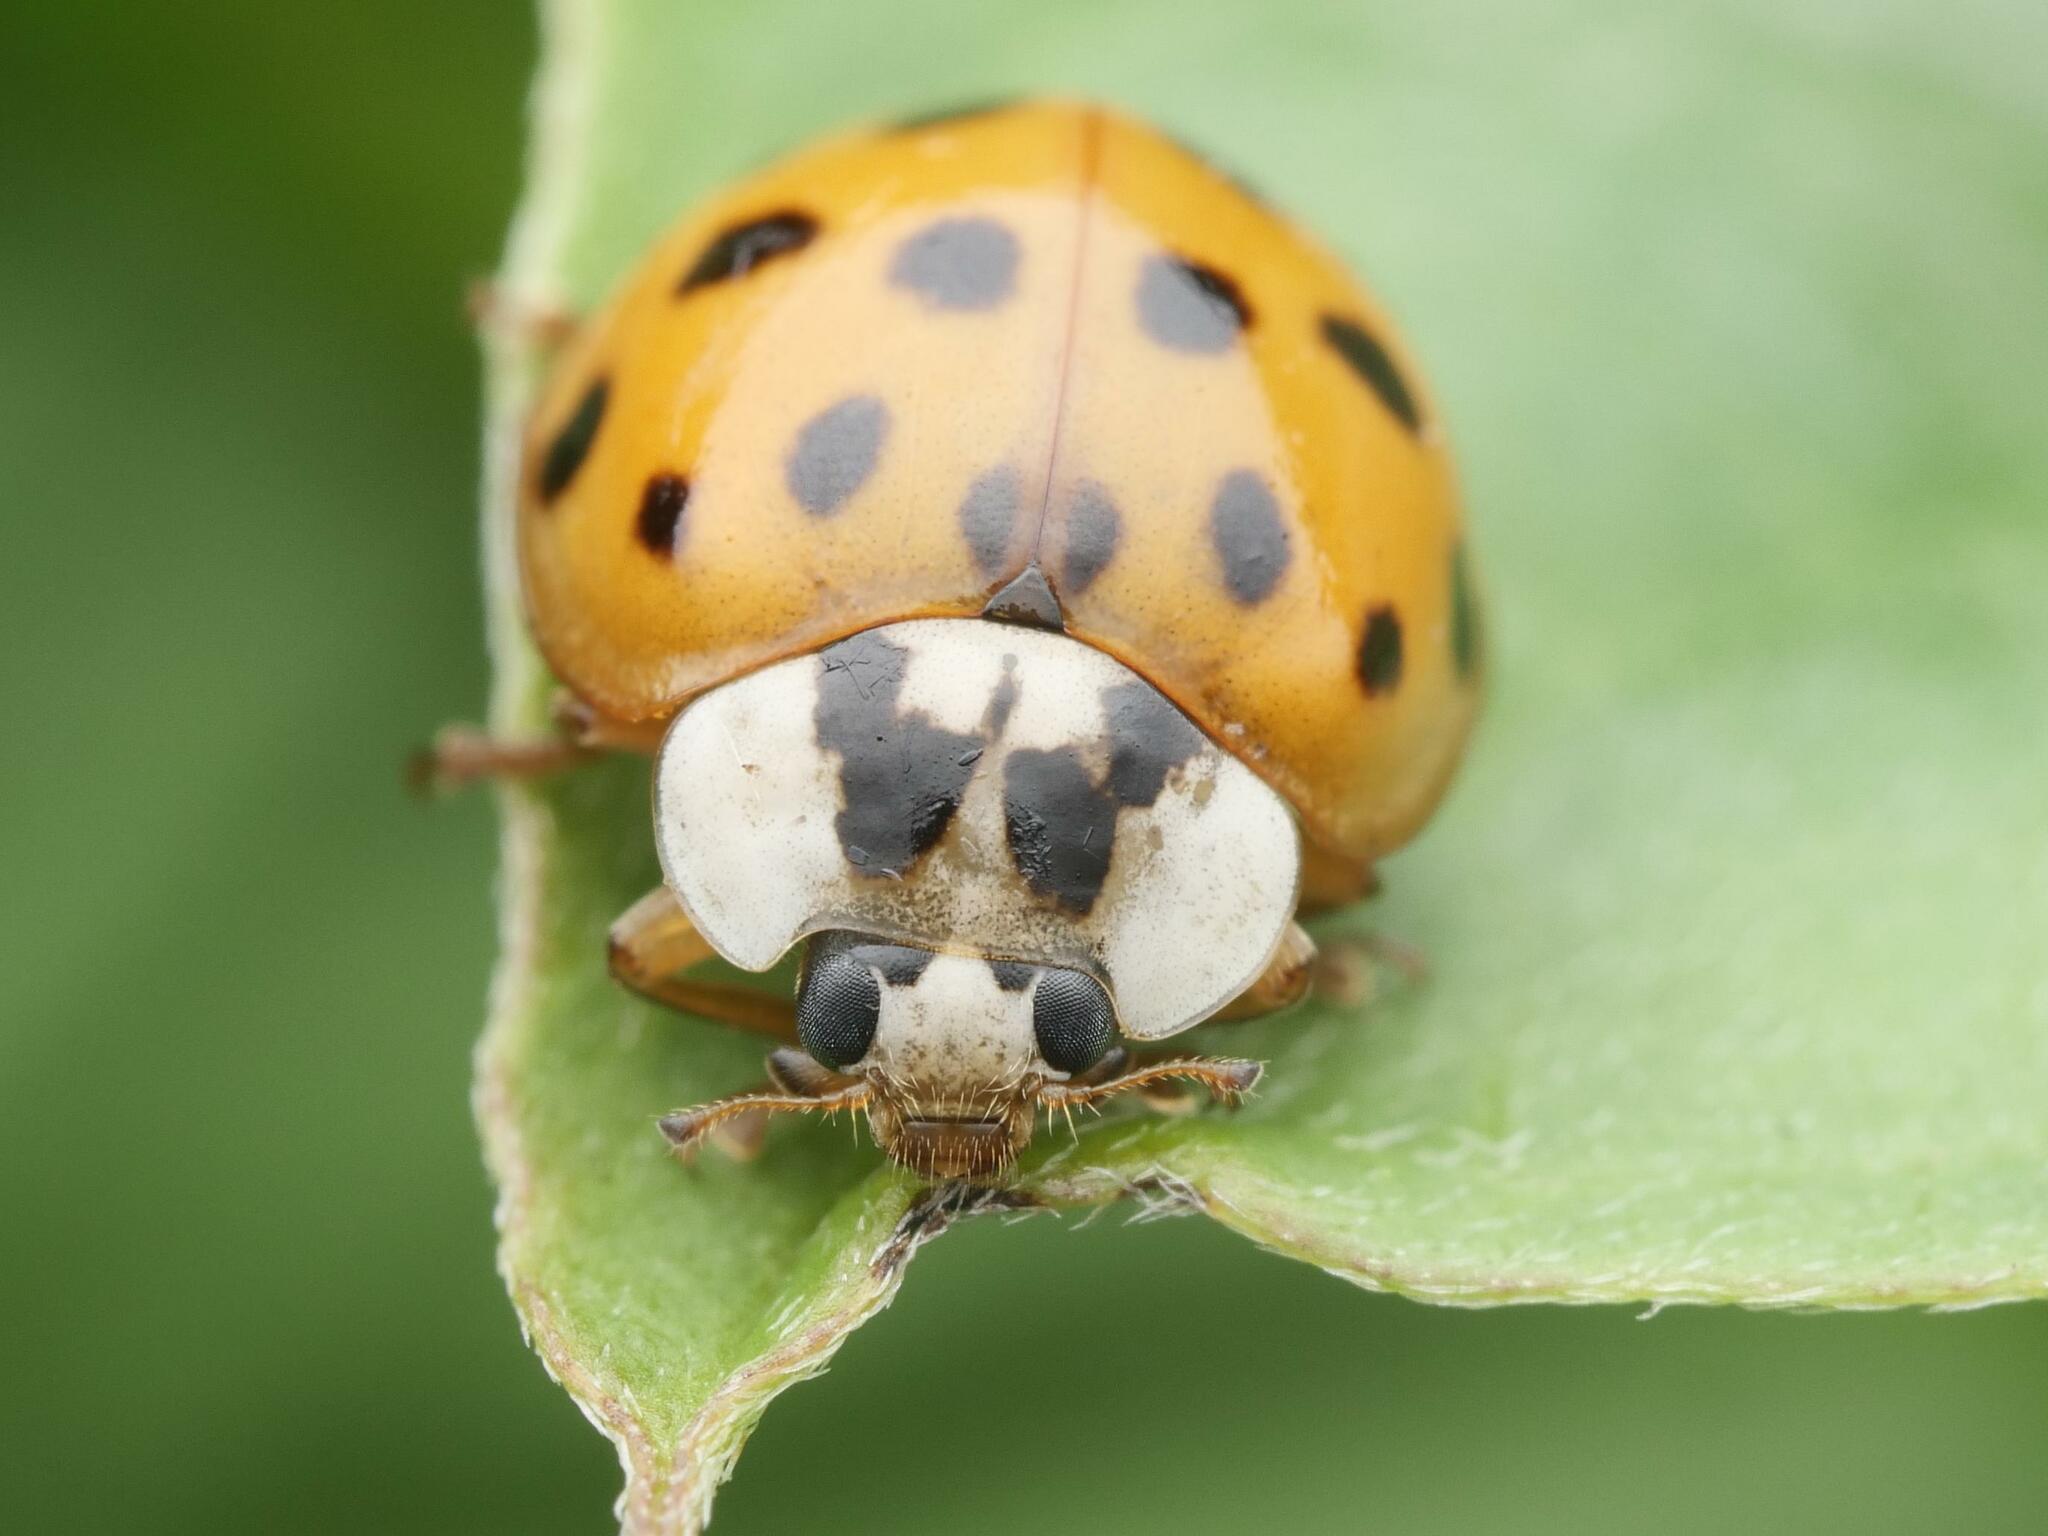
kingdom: Animalia
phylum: Arthropoda
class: Insecta
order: Coleoptera
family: Coccinellidae
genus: Harmonia
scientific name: Harmonia axyridis
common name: Harlequin ladybird
